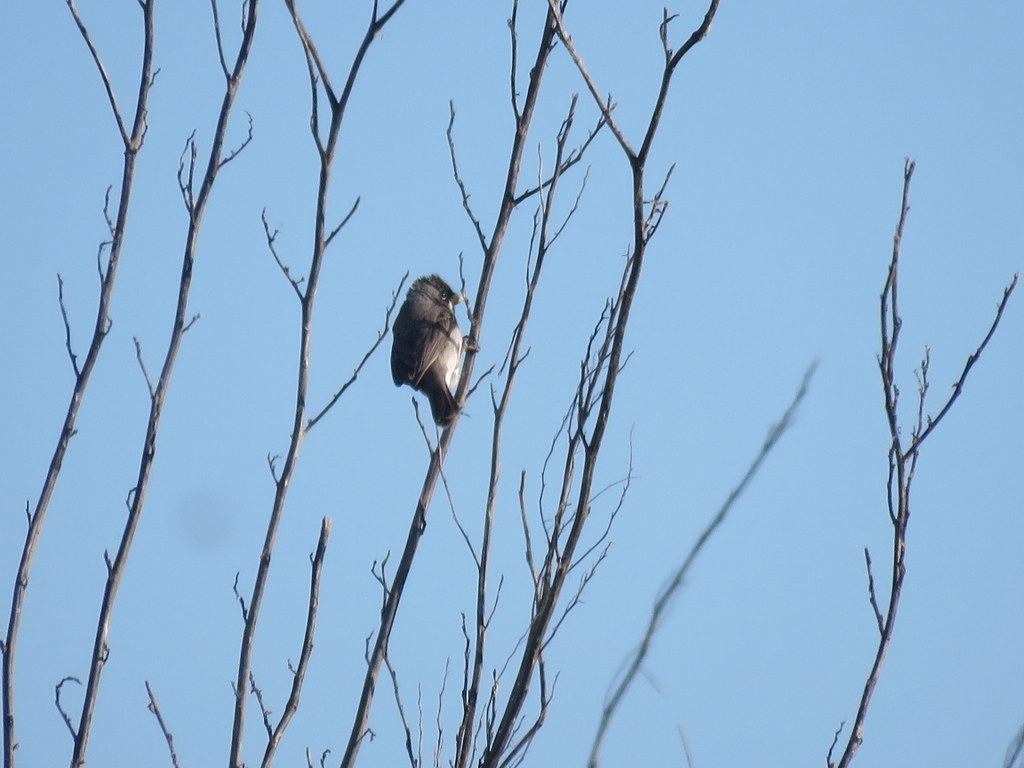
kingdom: Animalia
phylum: Chordata
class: Aves
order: Passeriformes
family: Thraupidae
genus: Sporophila
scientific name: Sporophila caerulescens
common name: Double-collared seedeater
